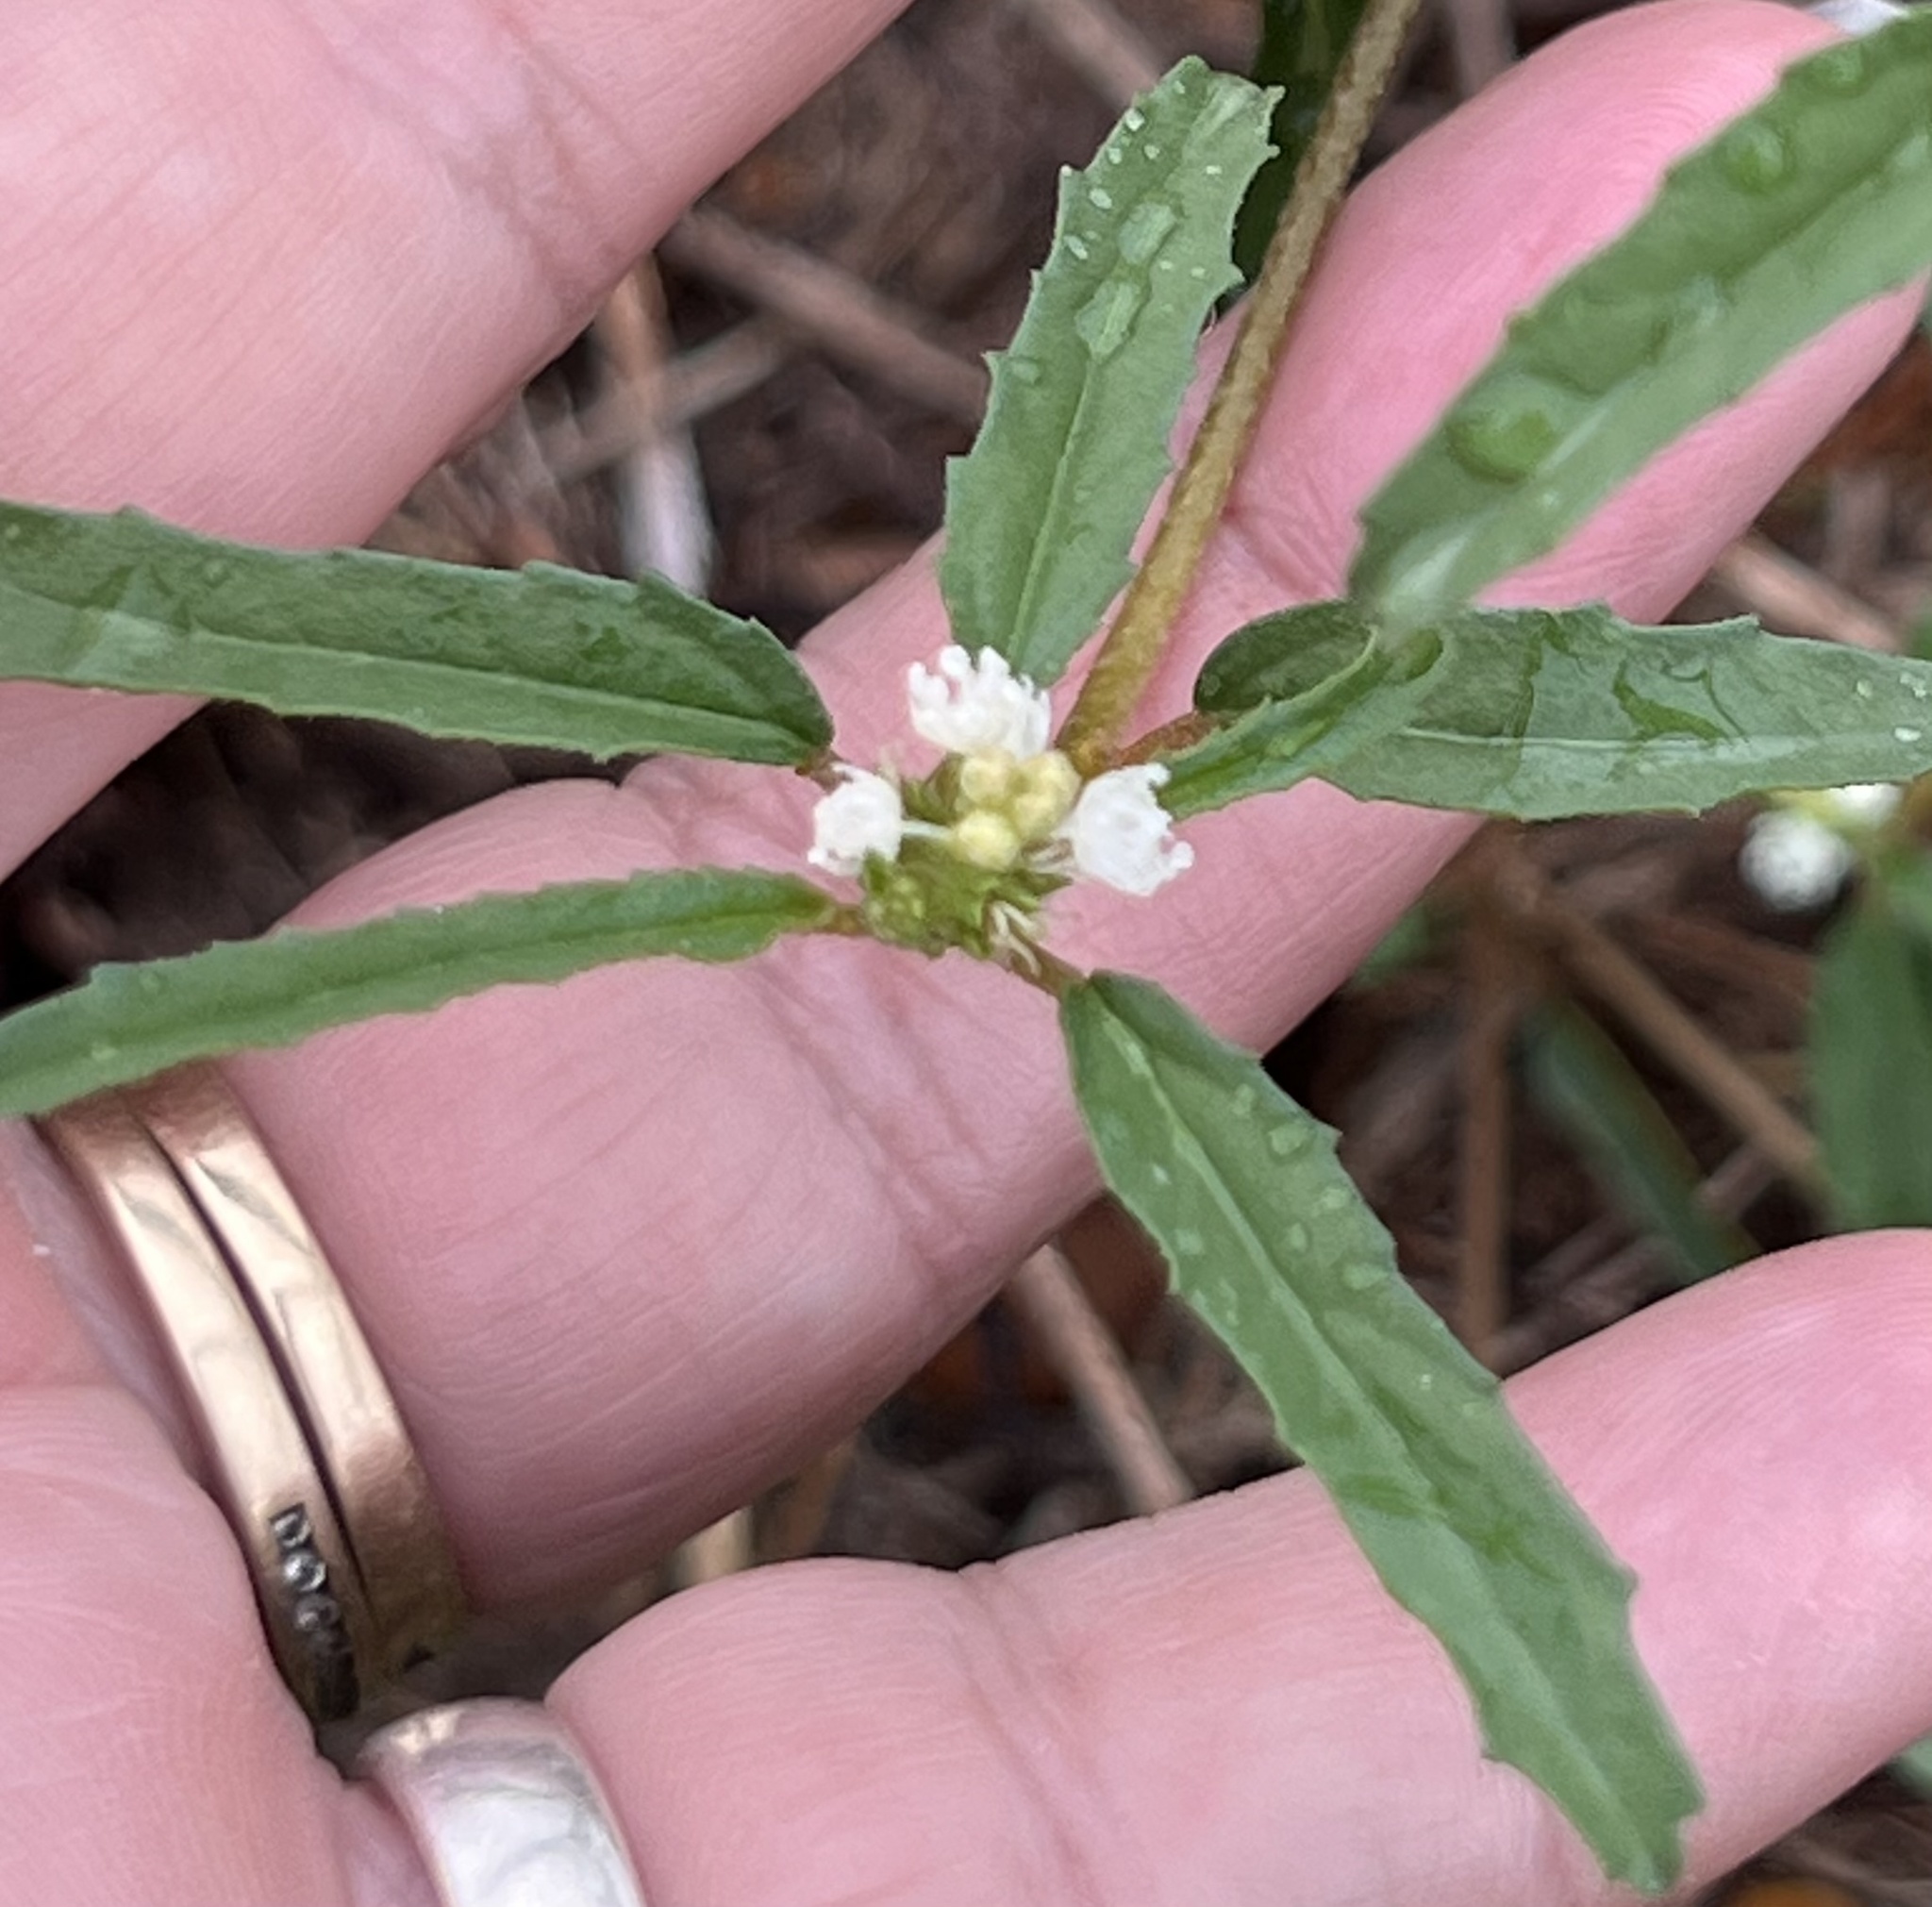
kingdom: Plantae
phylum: Tracheophyta
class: Magnoliopsida
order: Malpighiales
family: Euphorbiaceae
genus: Croton
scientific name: Croton glandulosus
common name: Tropic croton
